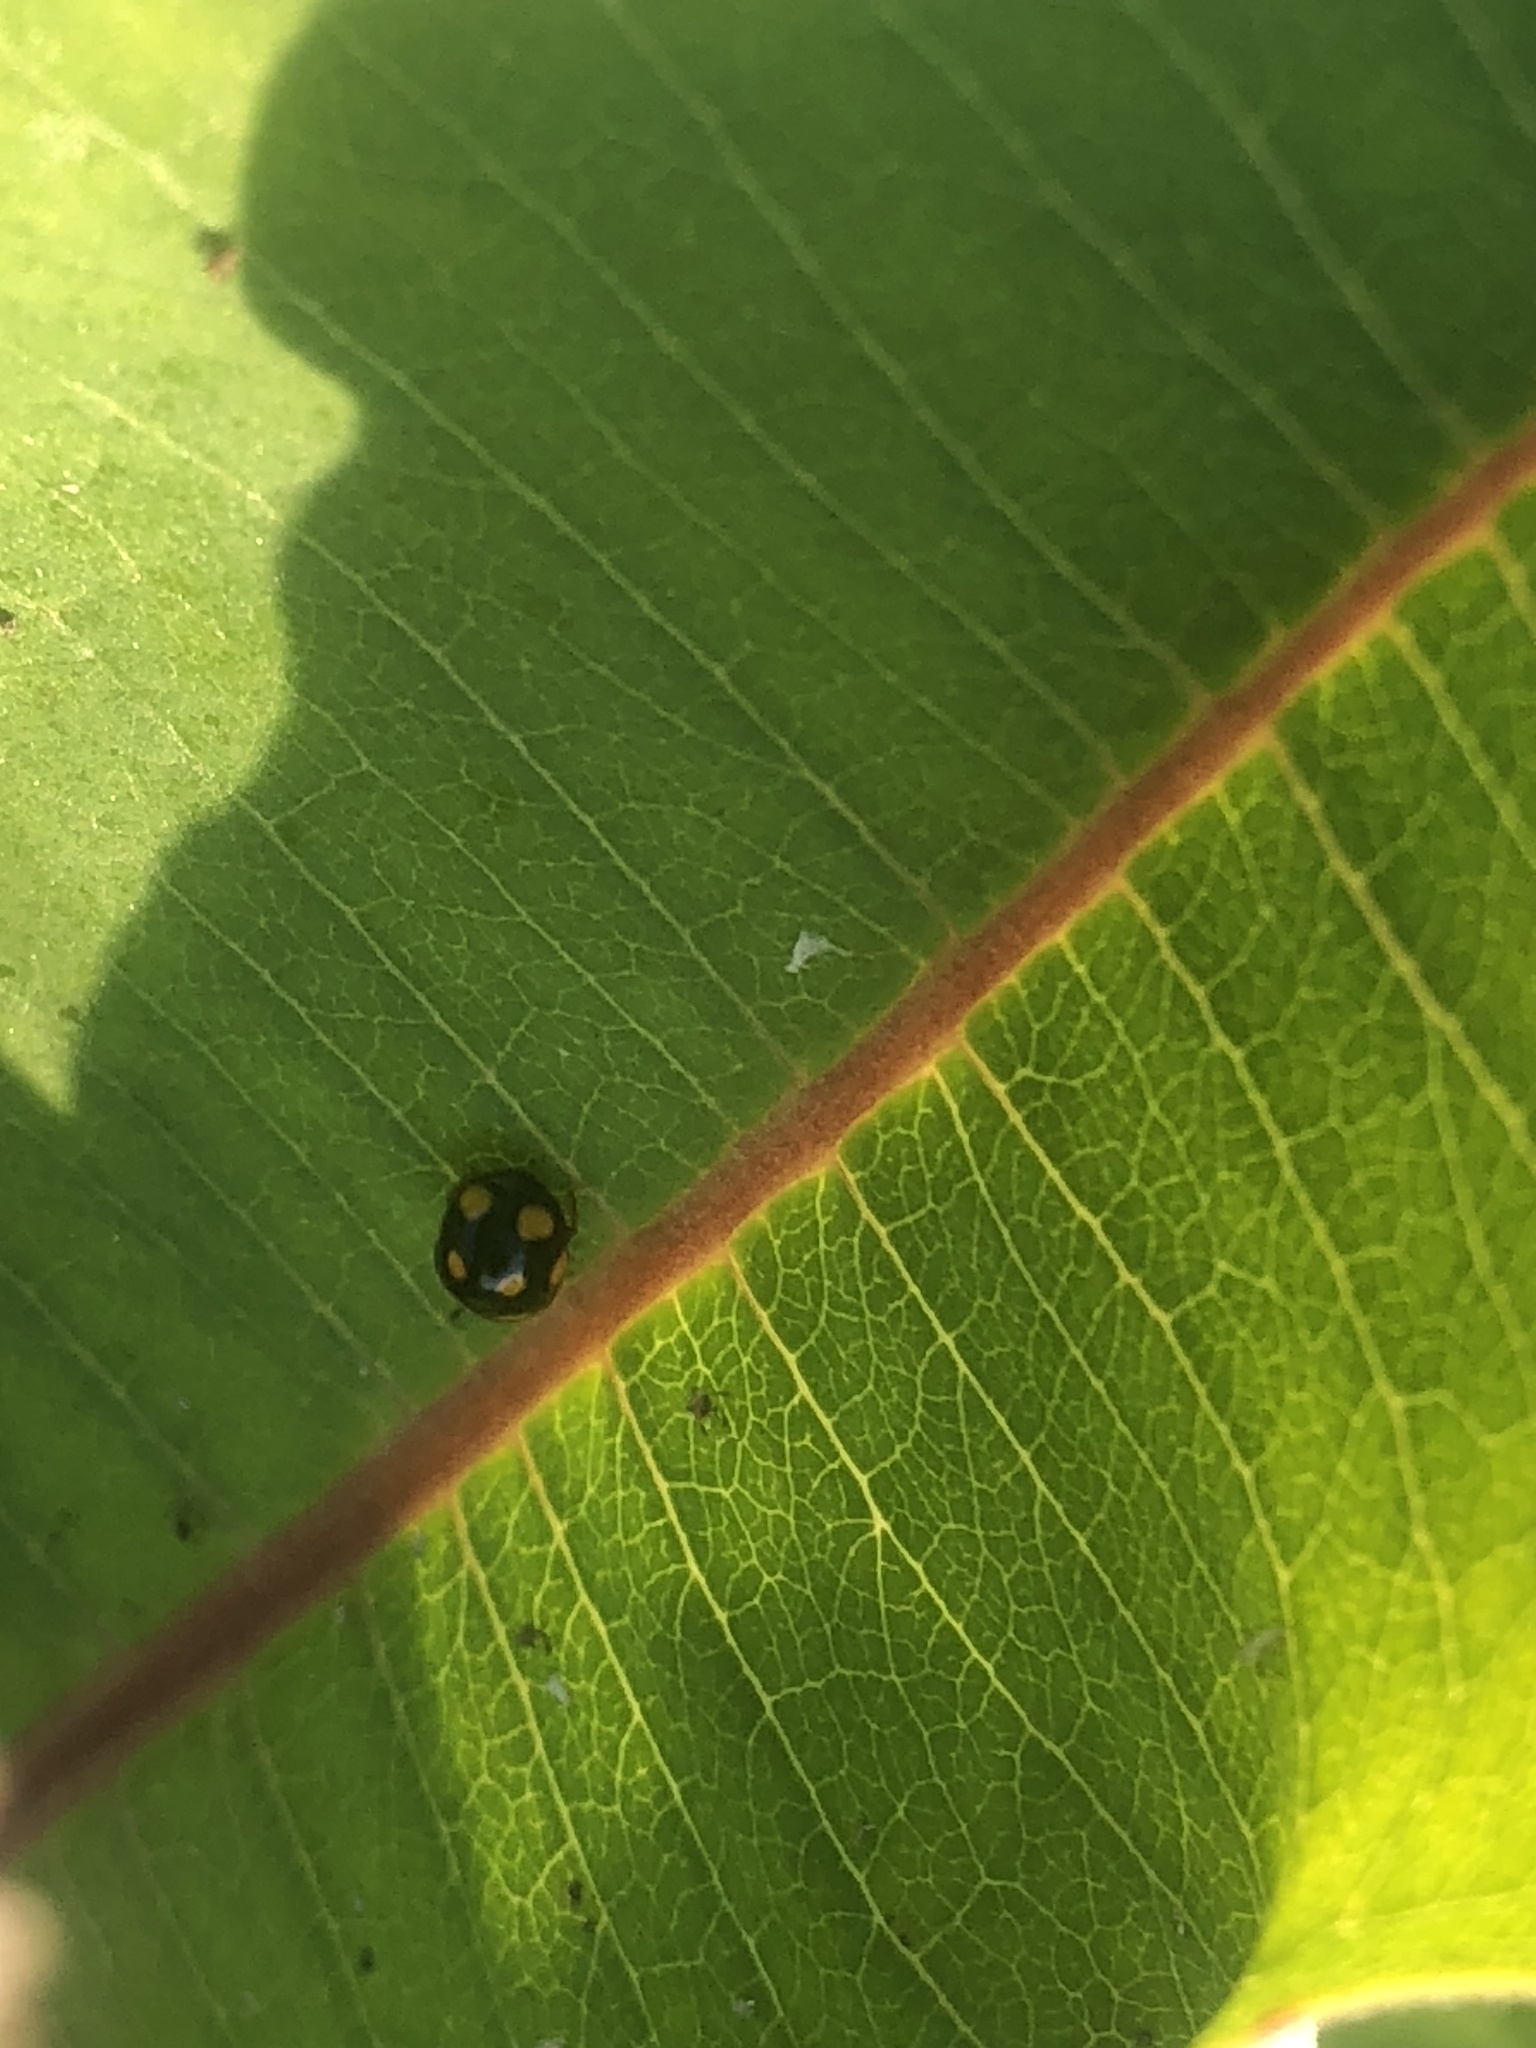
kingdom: Animalia
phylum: Arthropoda
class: Insecta
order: Coleoptera
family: Coccinellidae
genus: Brachiacantha
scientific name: Brachiacantha ursina
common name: Ursine spurleg lady beetle
